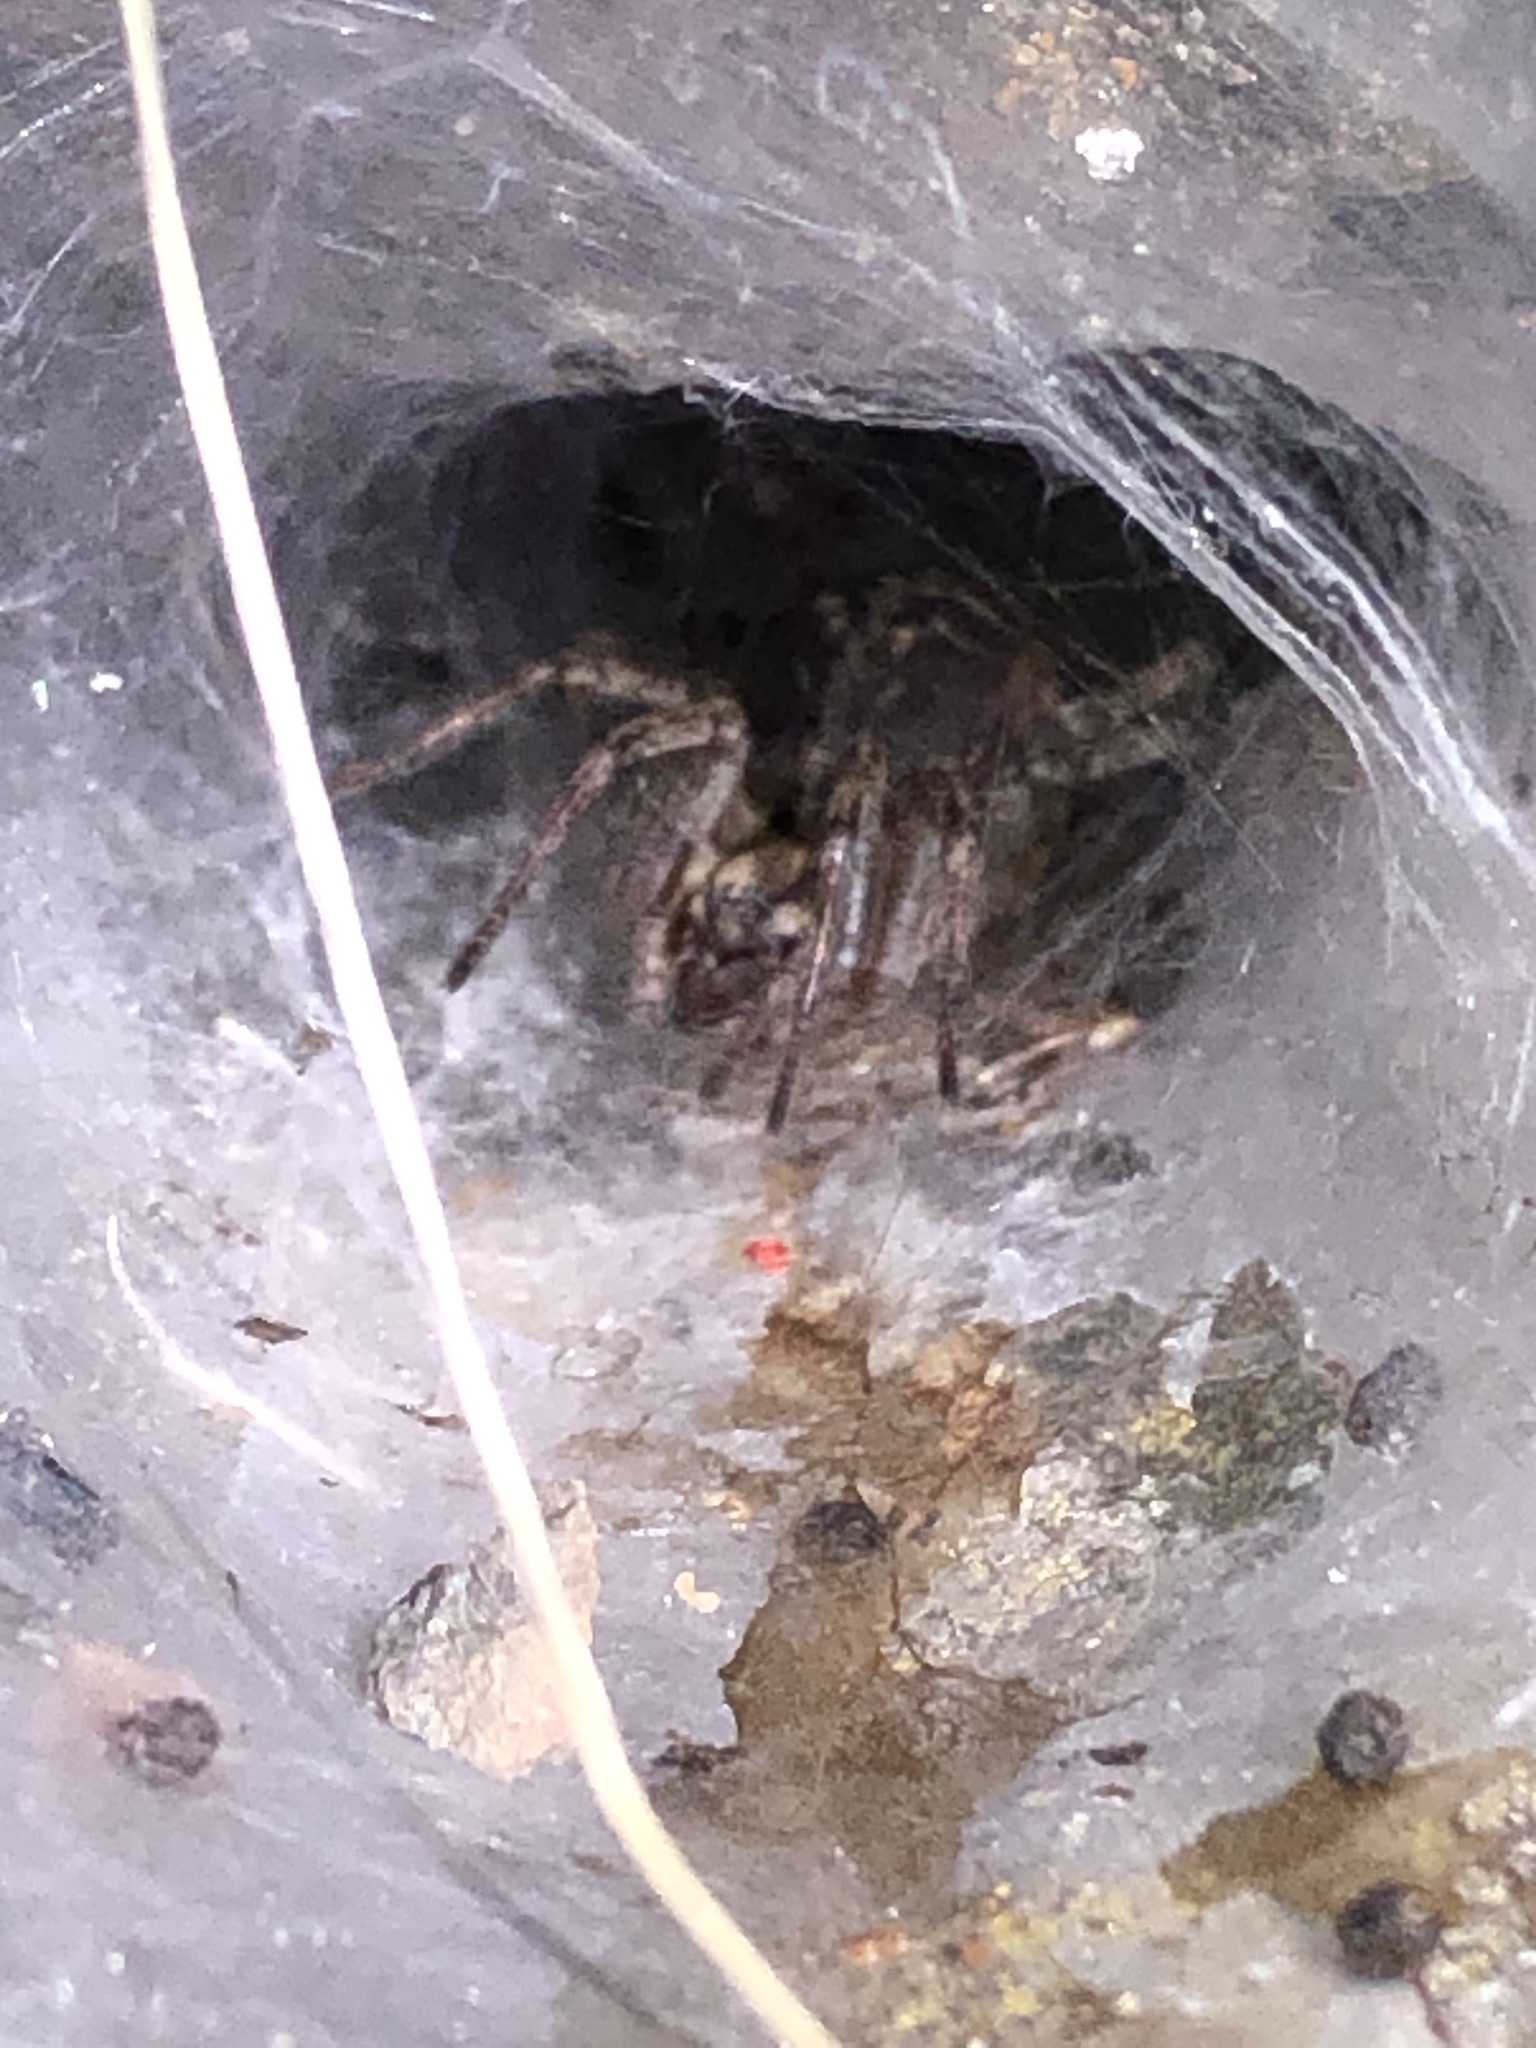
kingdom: Animalia
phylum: Arthropoda
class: Arachnida
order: Araneae
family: Agelenidae
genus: Agelena
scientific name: Agelena labyrinthica
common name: Labyrinth spider
